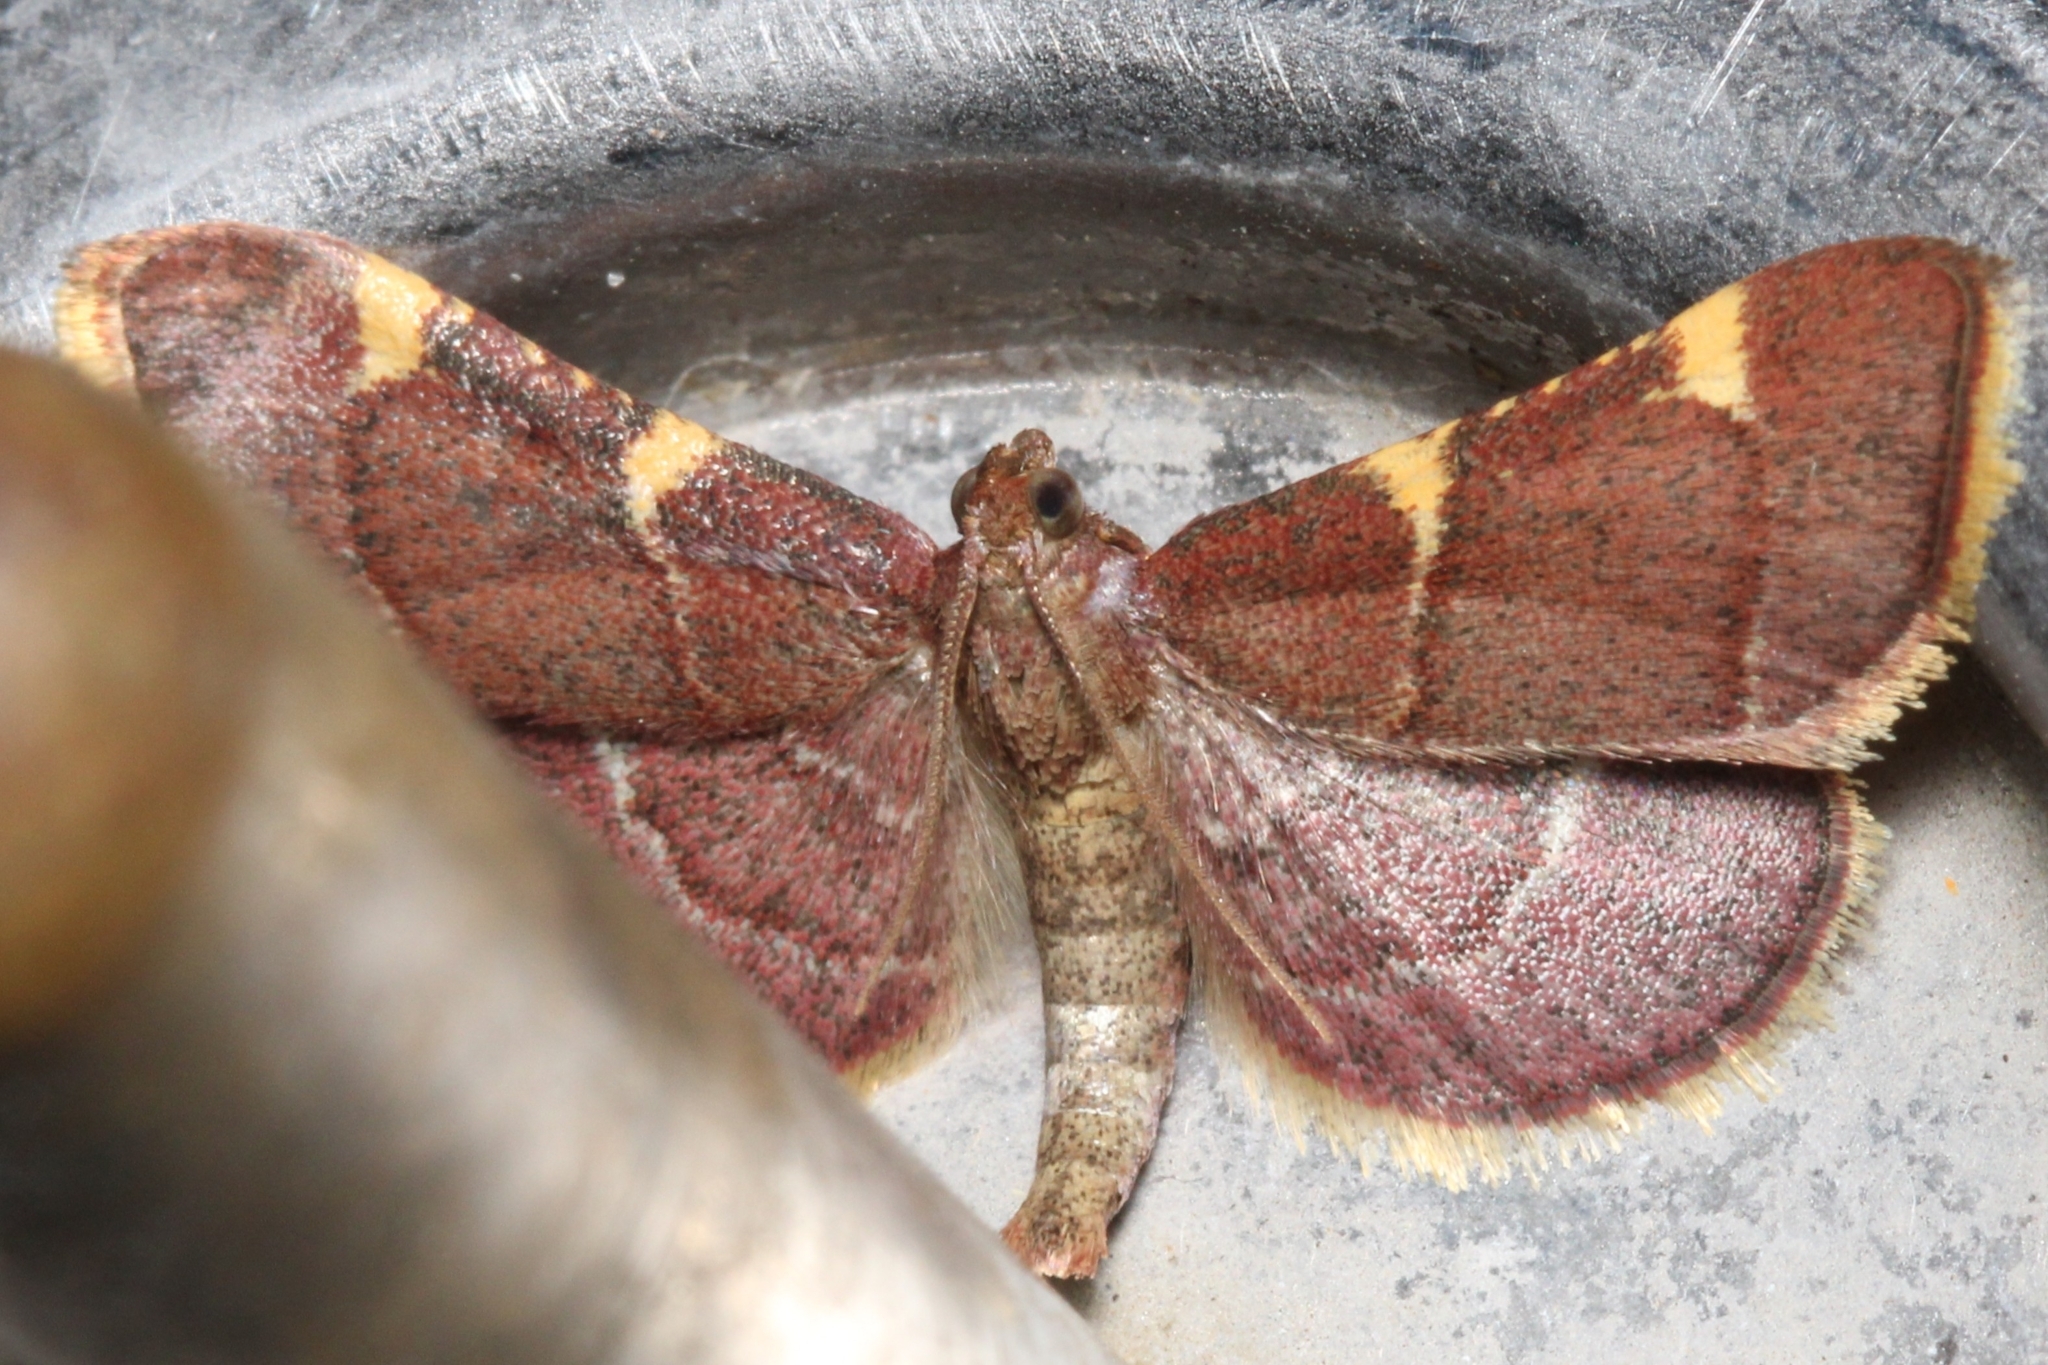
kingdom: Animalia
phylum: Arthropoda
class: Insecta
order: Lepidoptera
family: Pyralidae
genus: Hypsopygia
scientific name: Hypsopygia olinalis
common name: Yellow-fringed dolichomia moth
